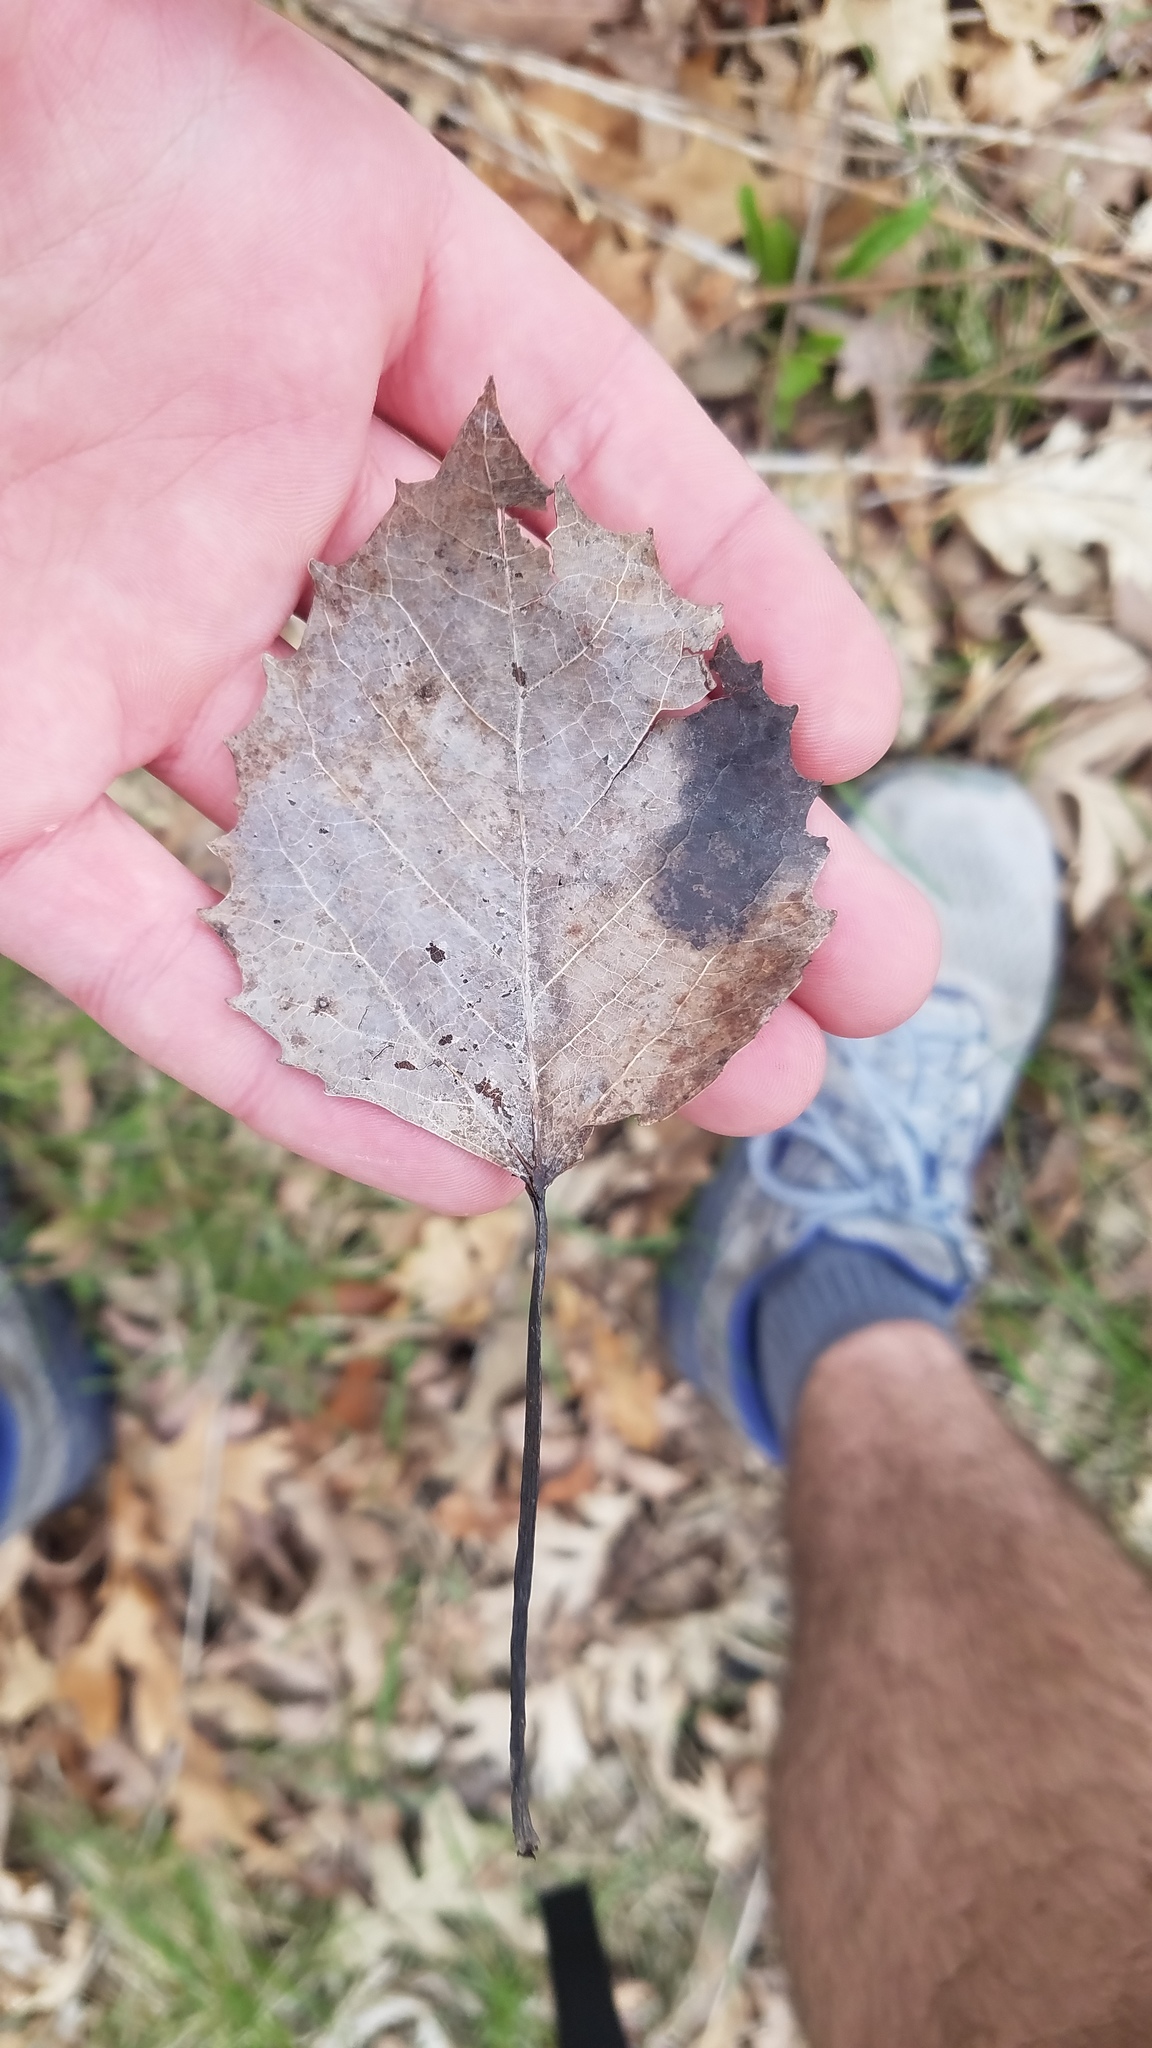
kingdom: Plantae
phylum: Tracheophyta
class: Magnoliopsida
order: Malpighiales
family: Salicaceae
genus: Populus
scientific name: Populus grandidentata
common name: Bigtooth aspen
